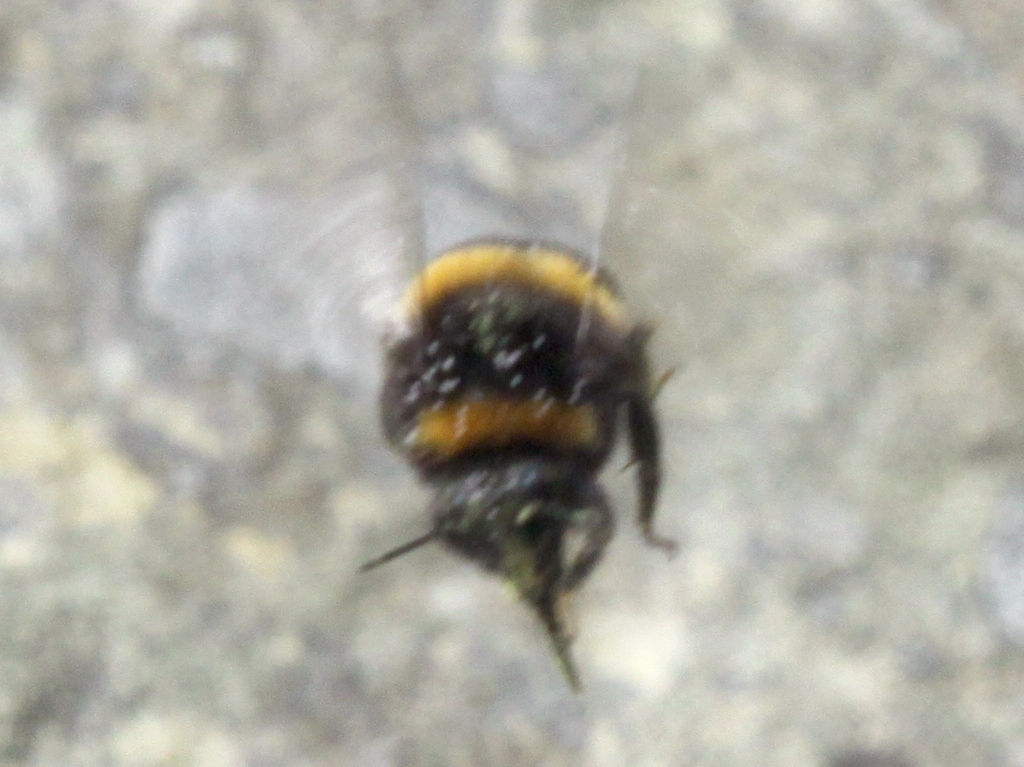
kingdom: Animalia
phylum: Arthropoda
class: Insecta
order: Hymenoptera
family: Apidae
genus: Bombus
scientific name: Bombus terrestris
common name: Buff-tailed bumblebee
